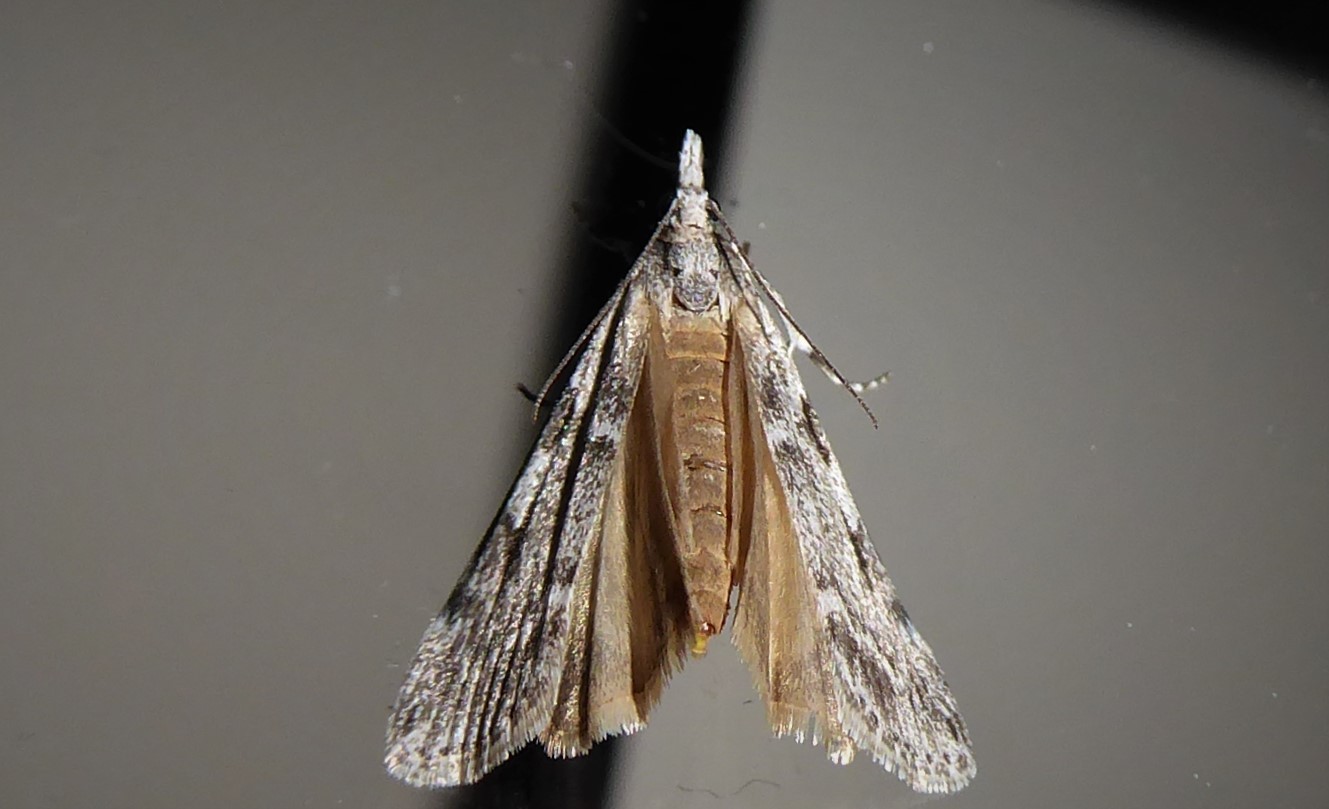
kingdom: Animalia
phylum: Arthropoda
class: Insecta
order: Lepidoptera
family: Crambidae
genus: Scoparia
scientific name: Scoparia halopis
